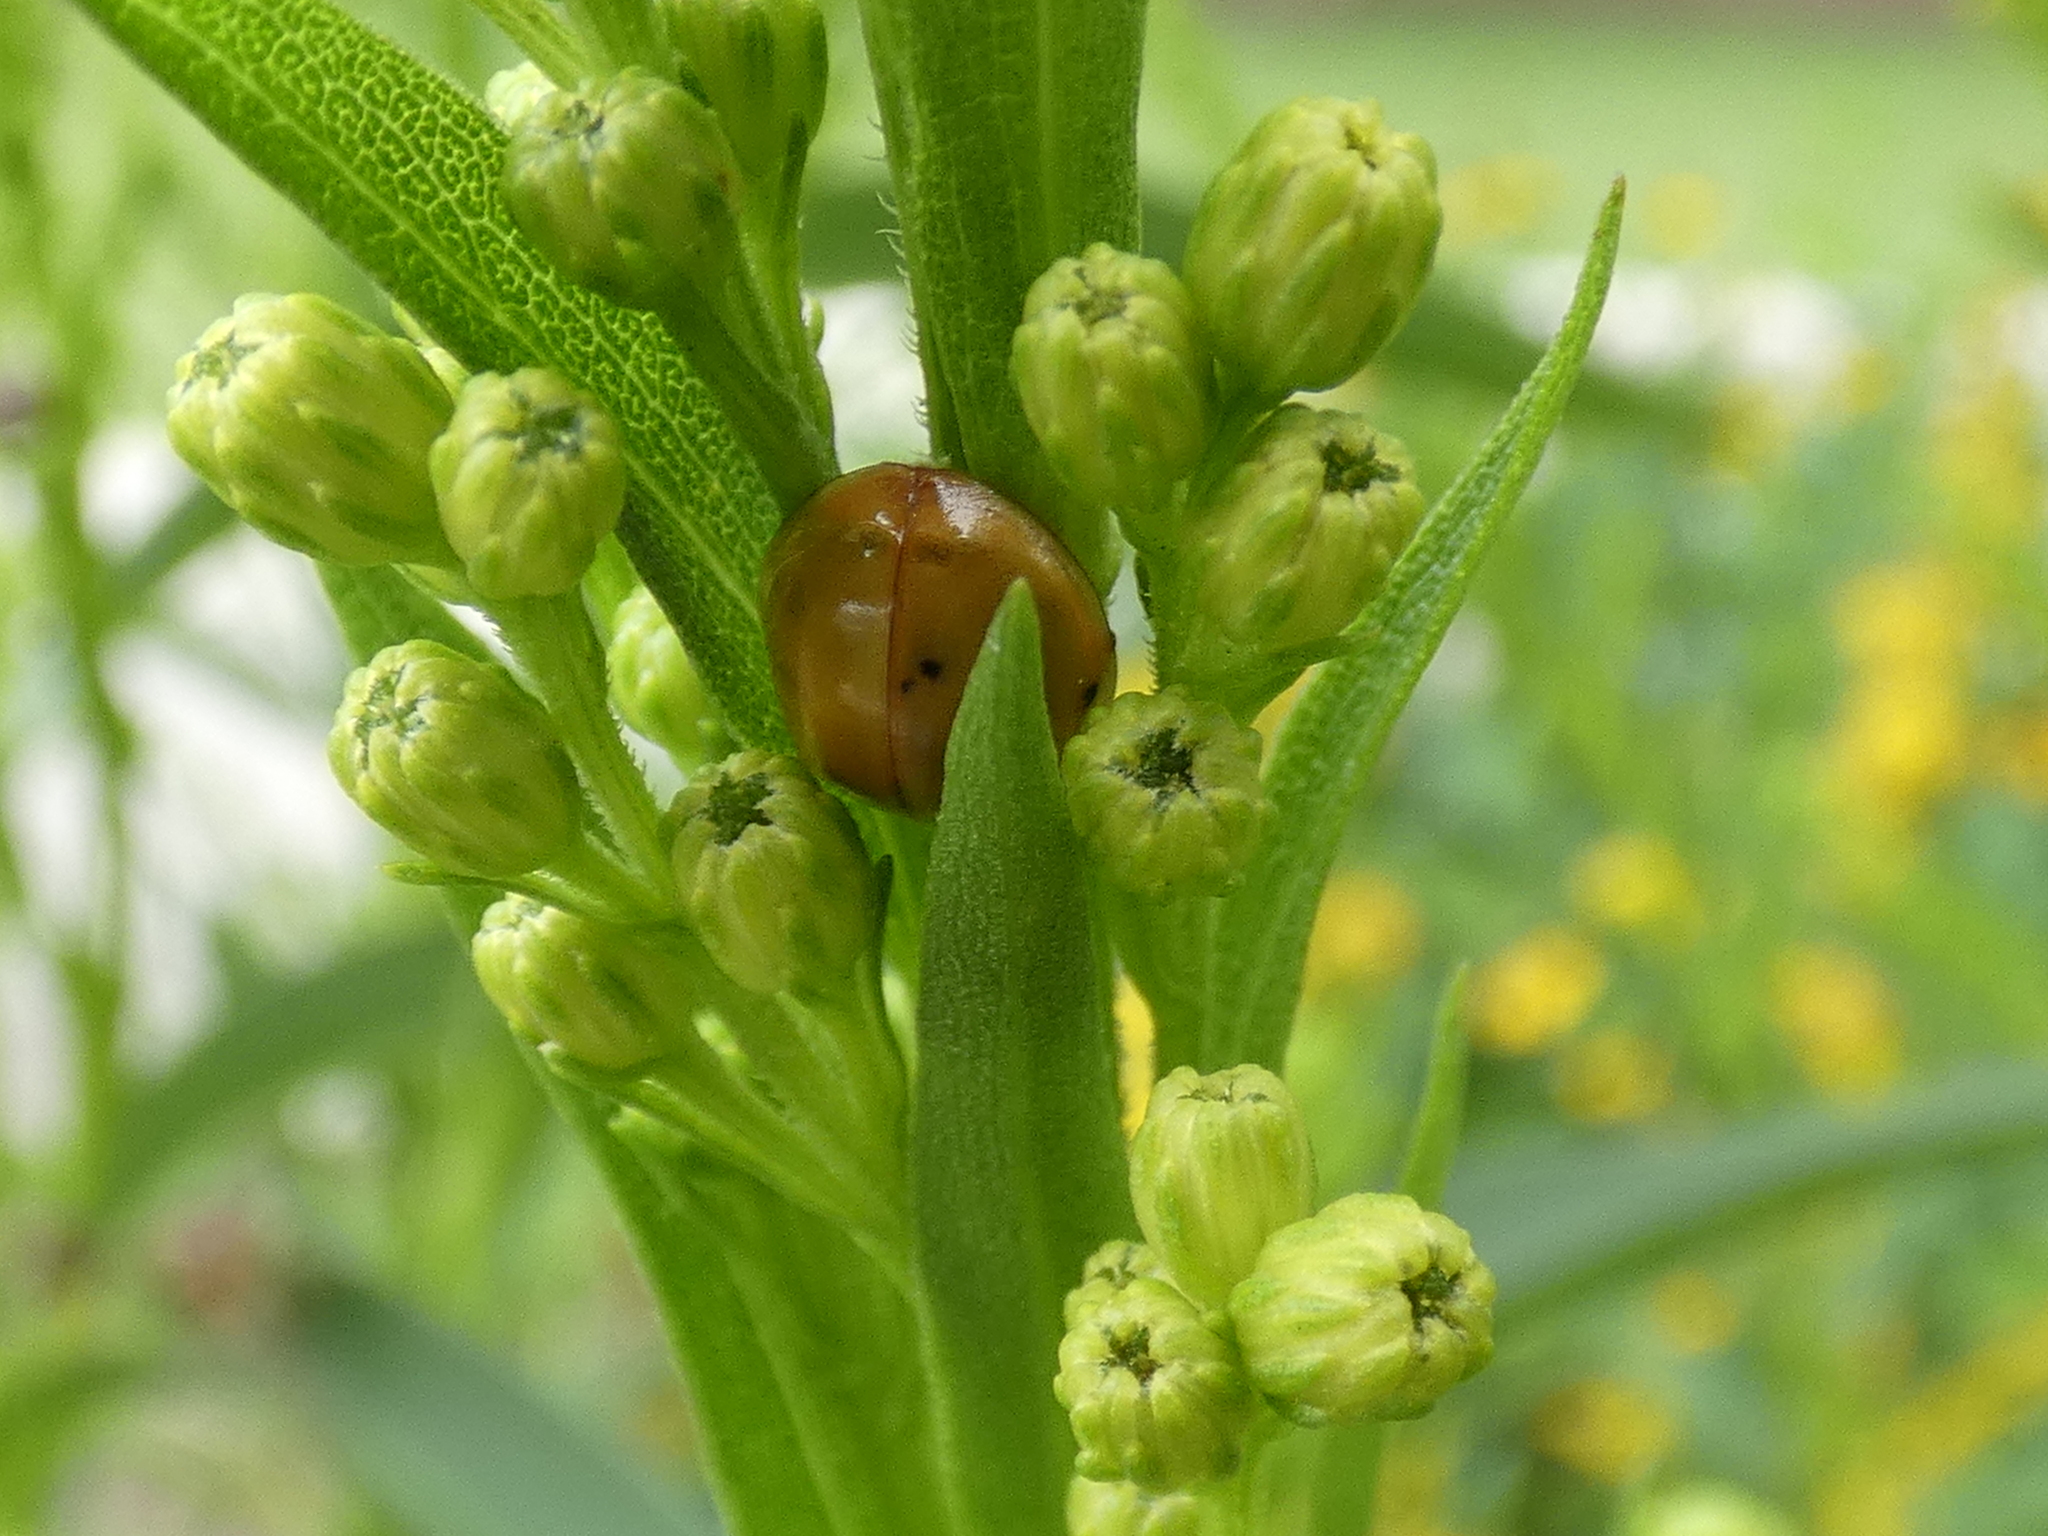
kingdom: Animalia
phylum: Arthropoda
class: Insecta
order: Coleoptera
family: Coccinellidae
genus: Harmonia
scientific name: Harmonia axyridis
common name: Harlequin ladybird
